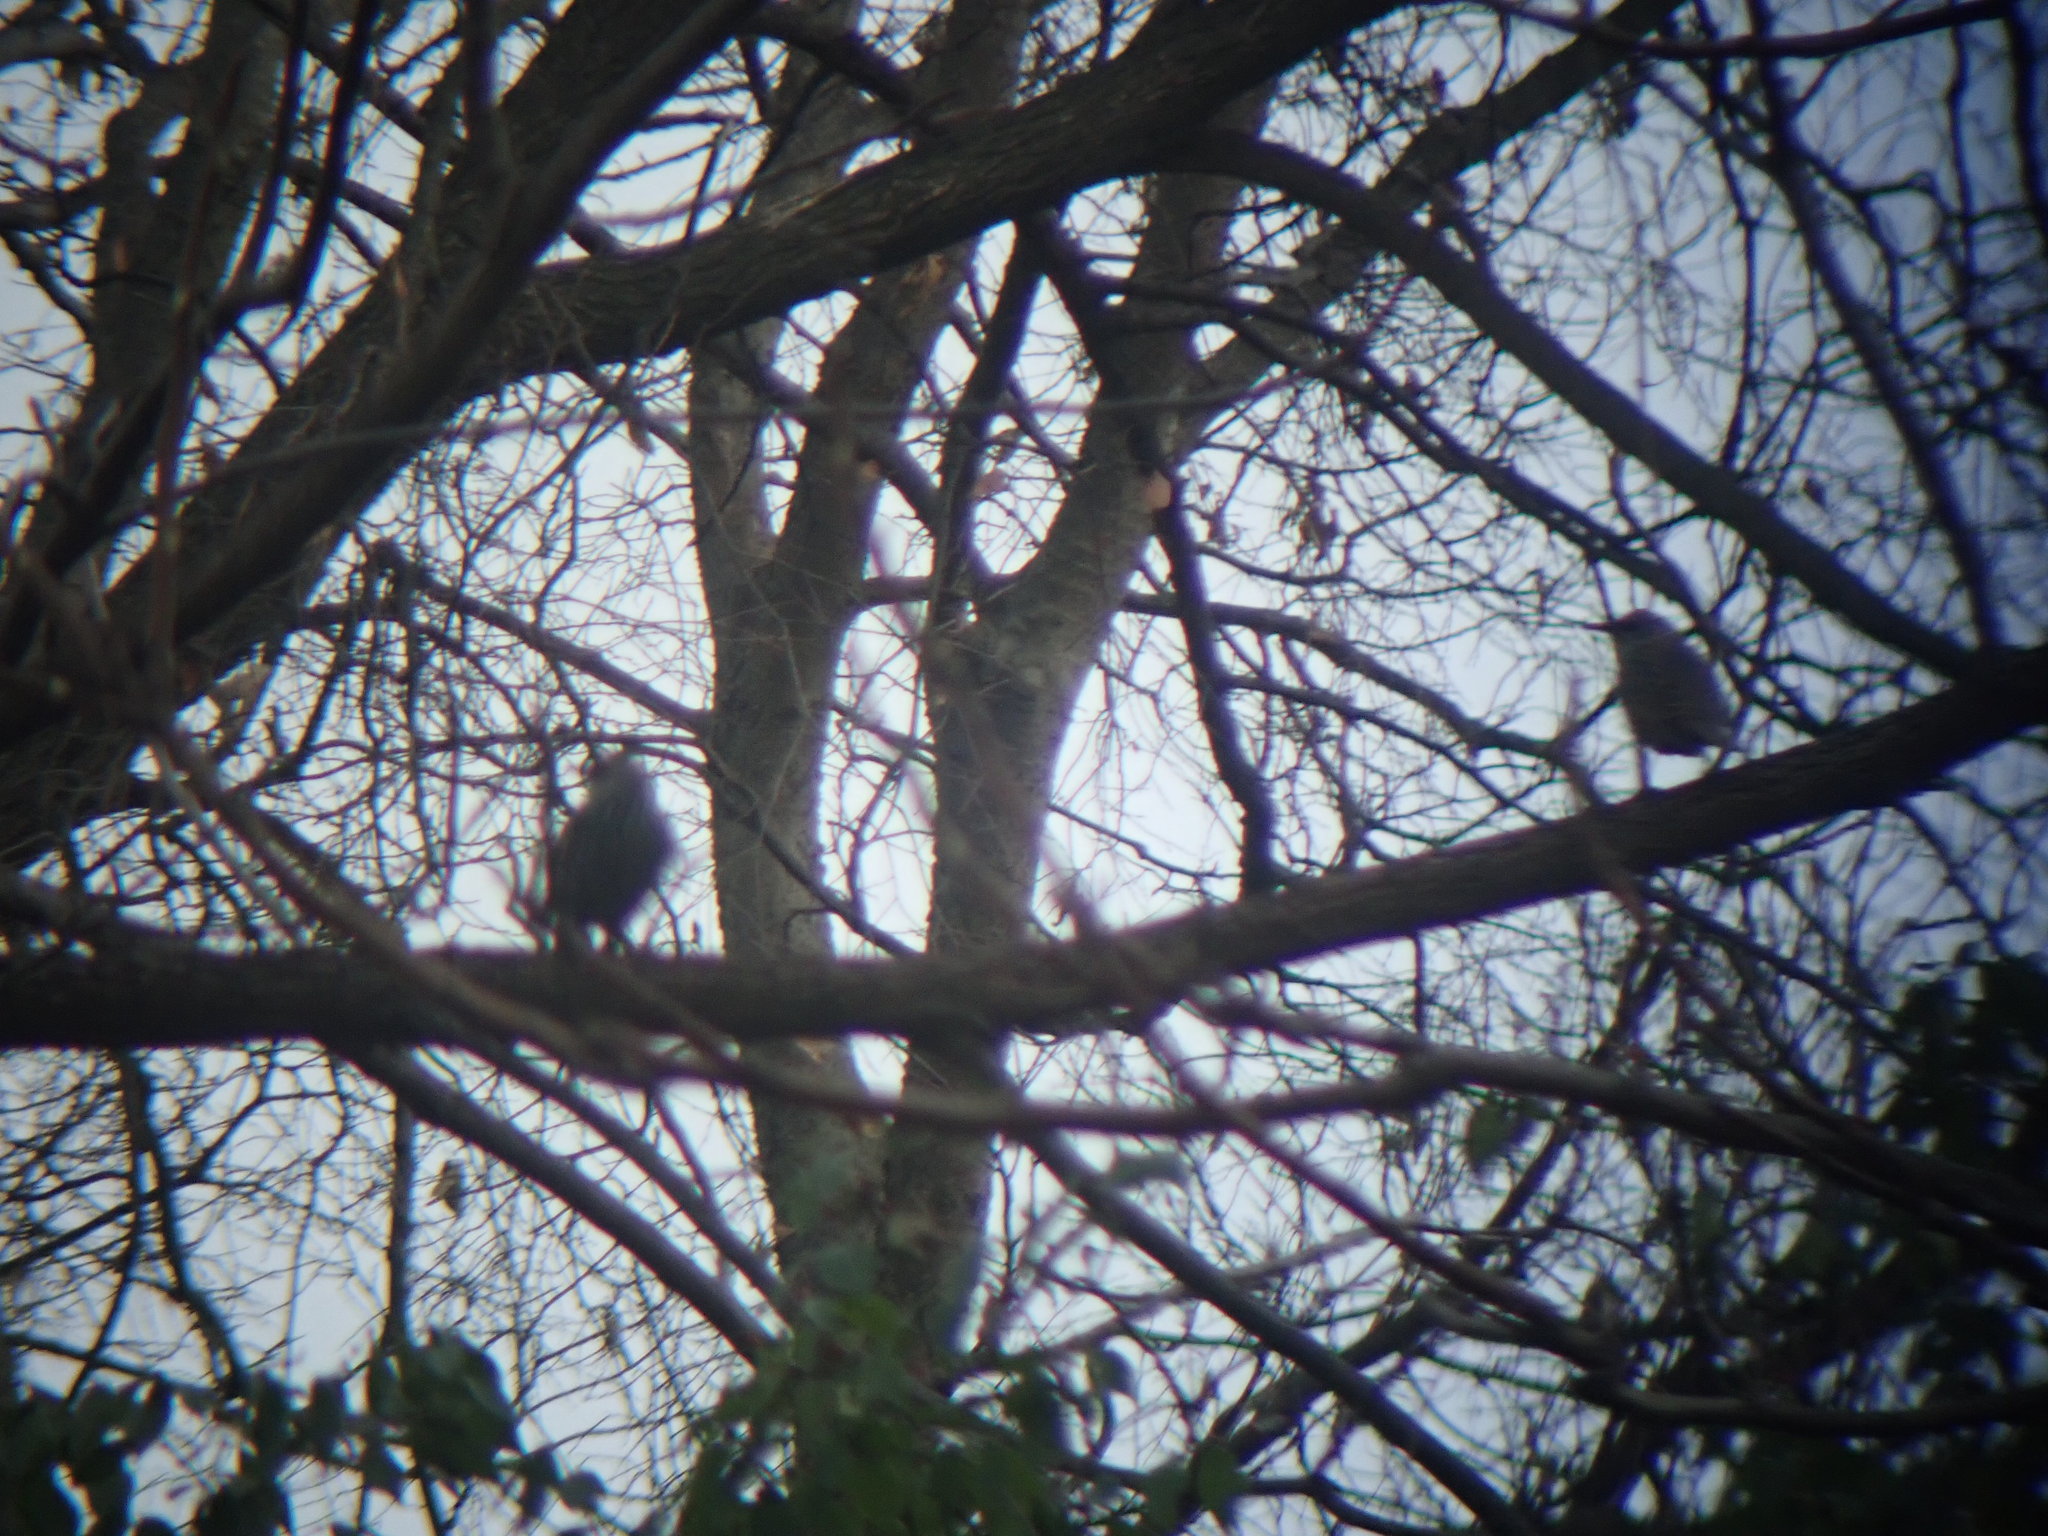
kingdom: Animalia
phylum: Chordata
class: Aves
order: Passeriformes
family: Sturnidae
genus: Sturnus
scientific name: Sturnus vulgaris
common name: Common starling
